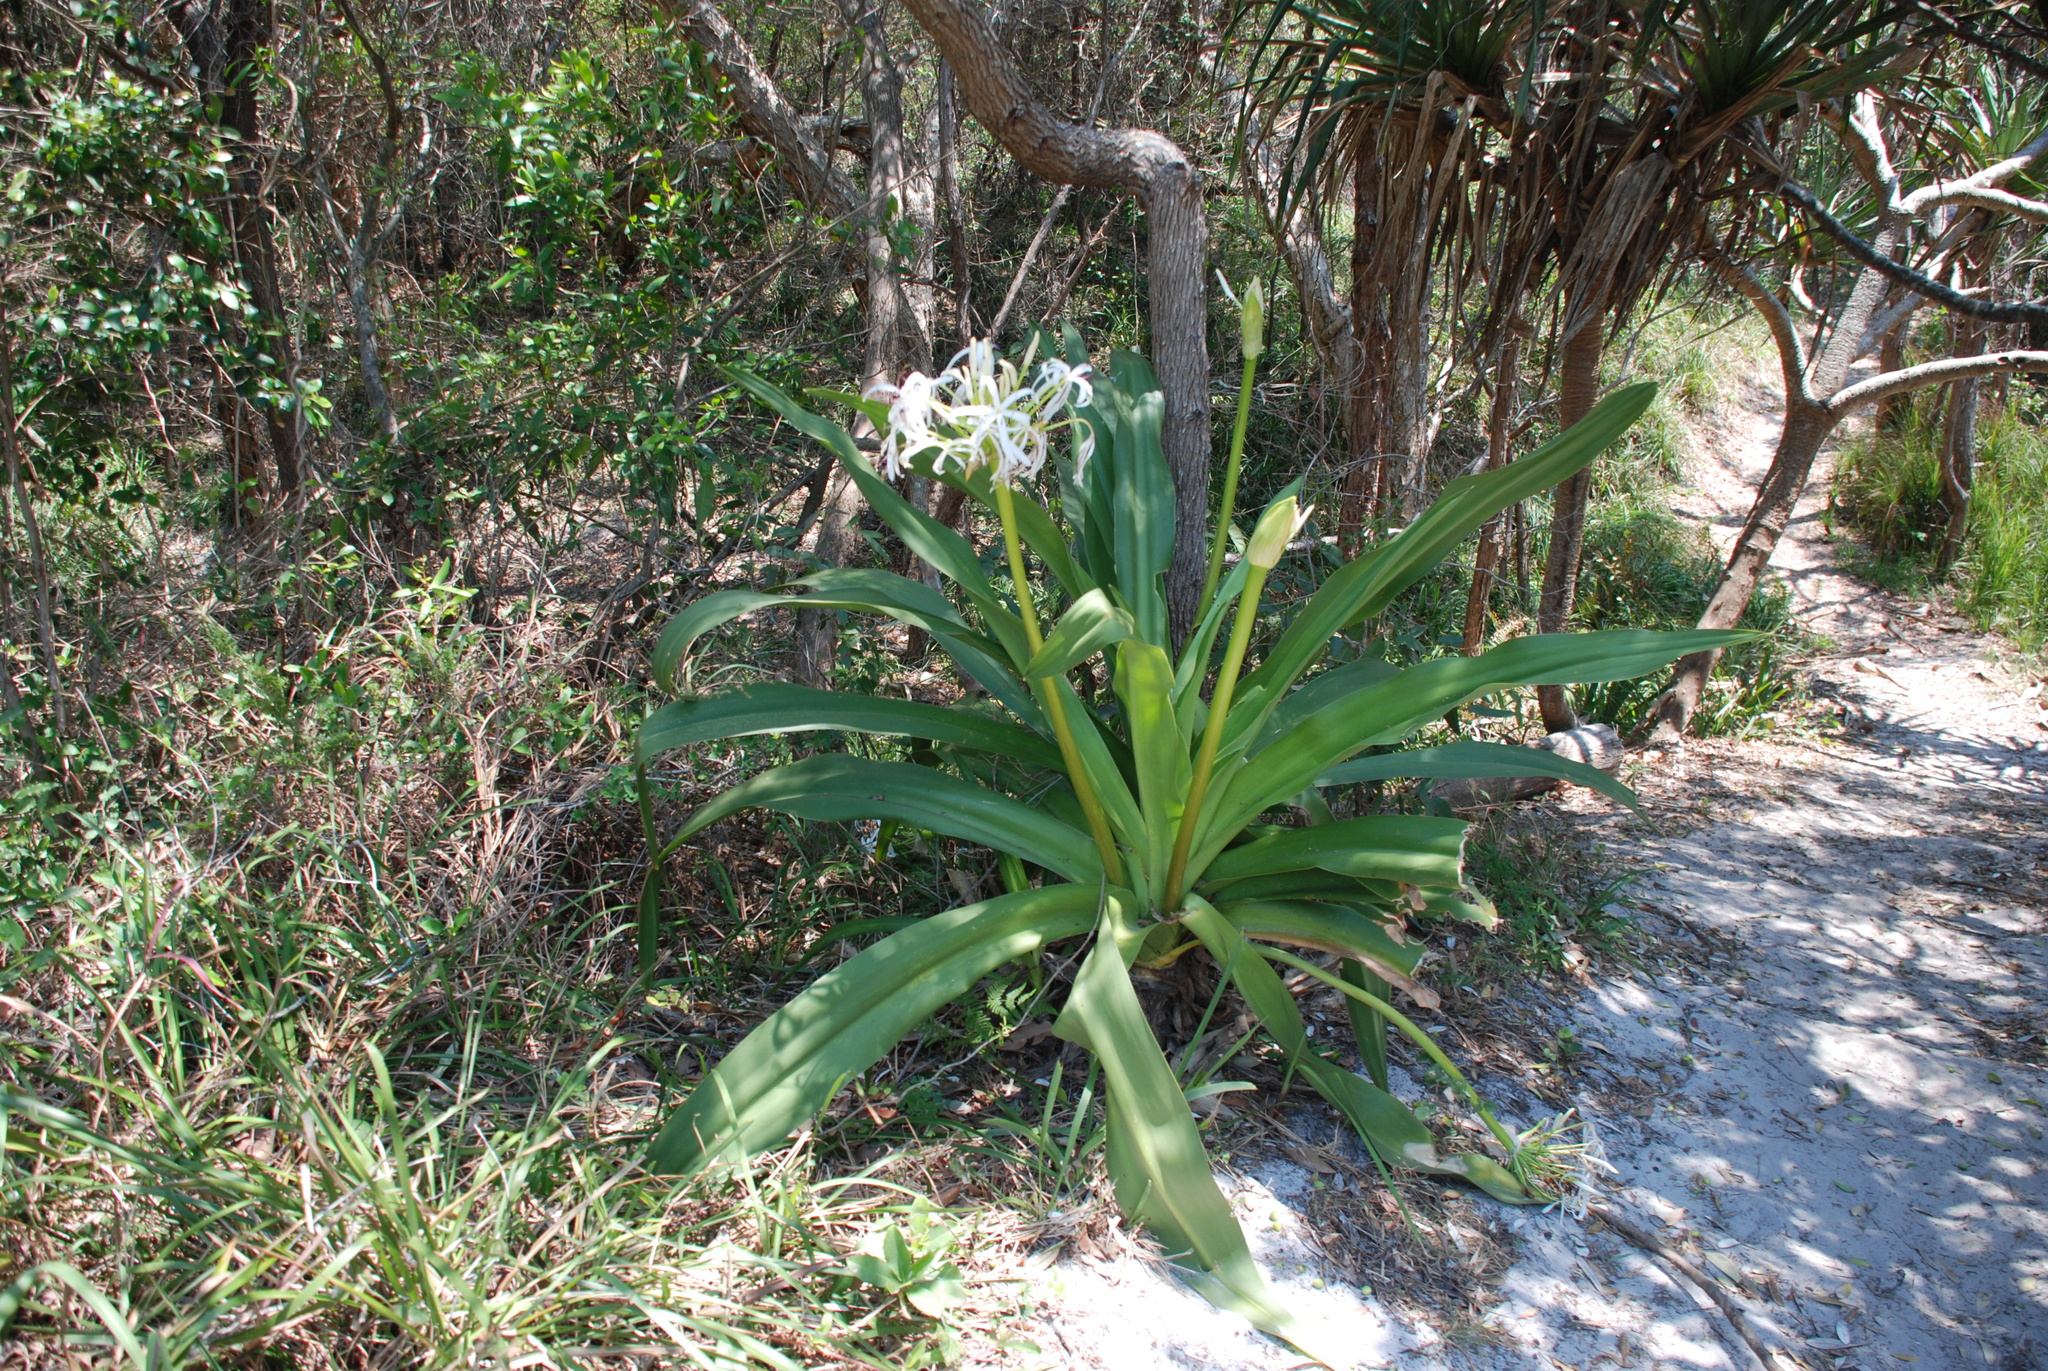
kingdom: Plantae
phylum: Tracheophyta
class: Liliopsida
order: Asparagales
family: Amaryllidaceae
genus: Crinum
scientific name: Crinum pedunculatum
